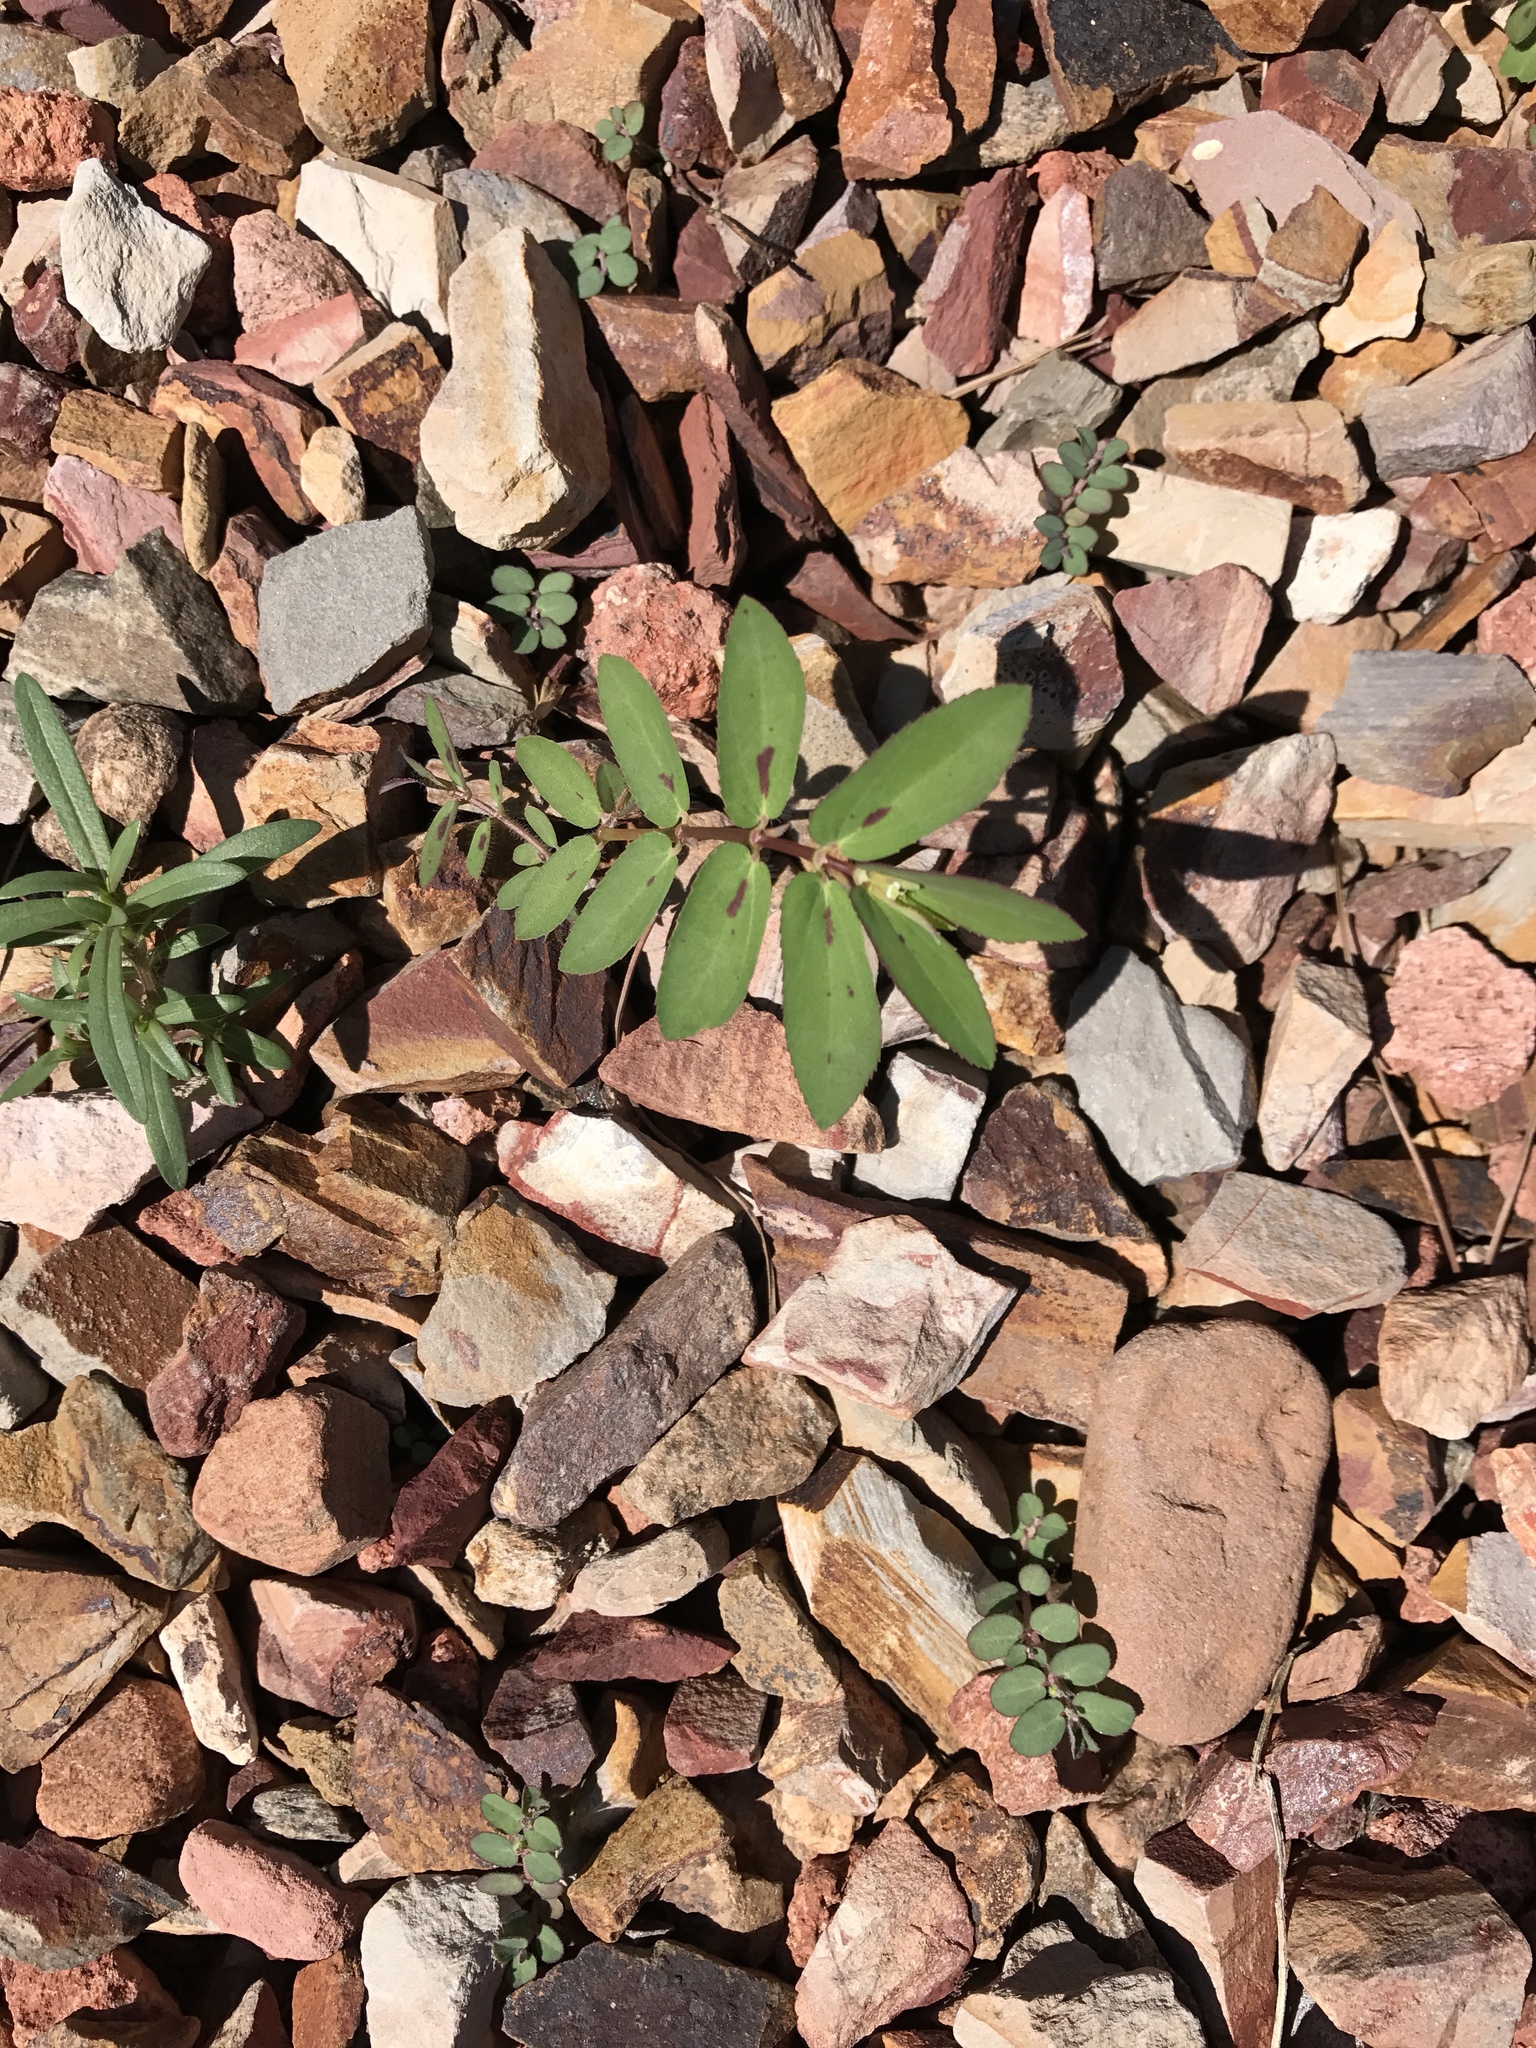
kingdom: Plantae
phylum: Tracheophyta
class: Magnoliopsida
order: Malpighiales
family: Euphorbiaceae
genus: Euphorbia
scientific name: Euphorbia hyssopifolia
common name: Hyssopleaf sandmat
